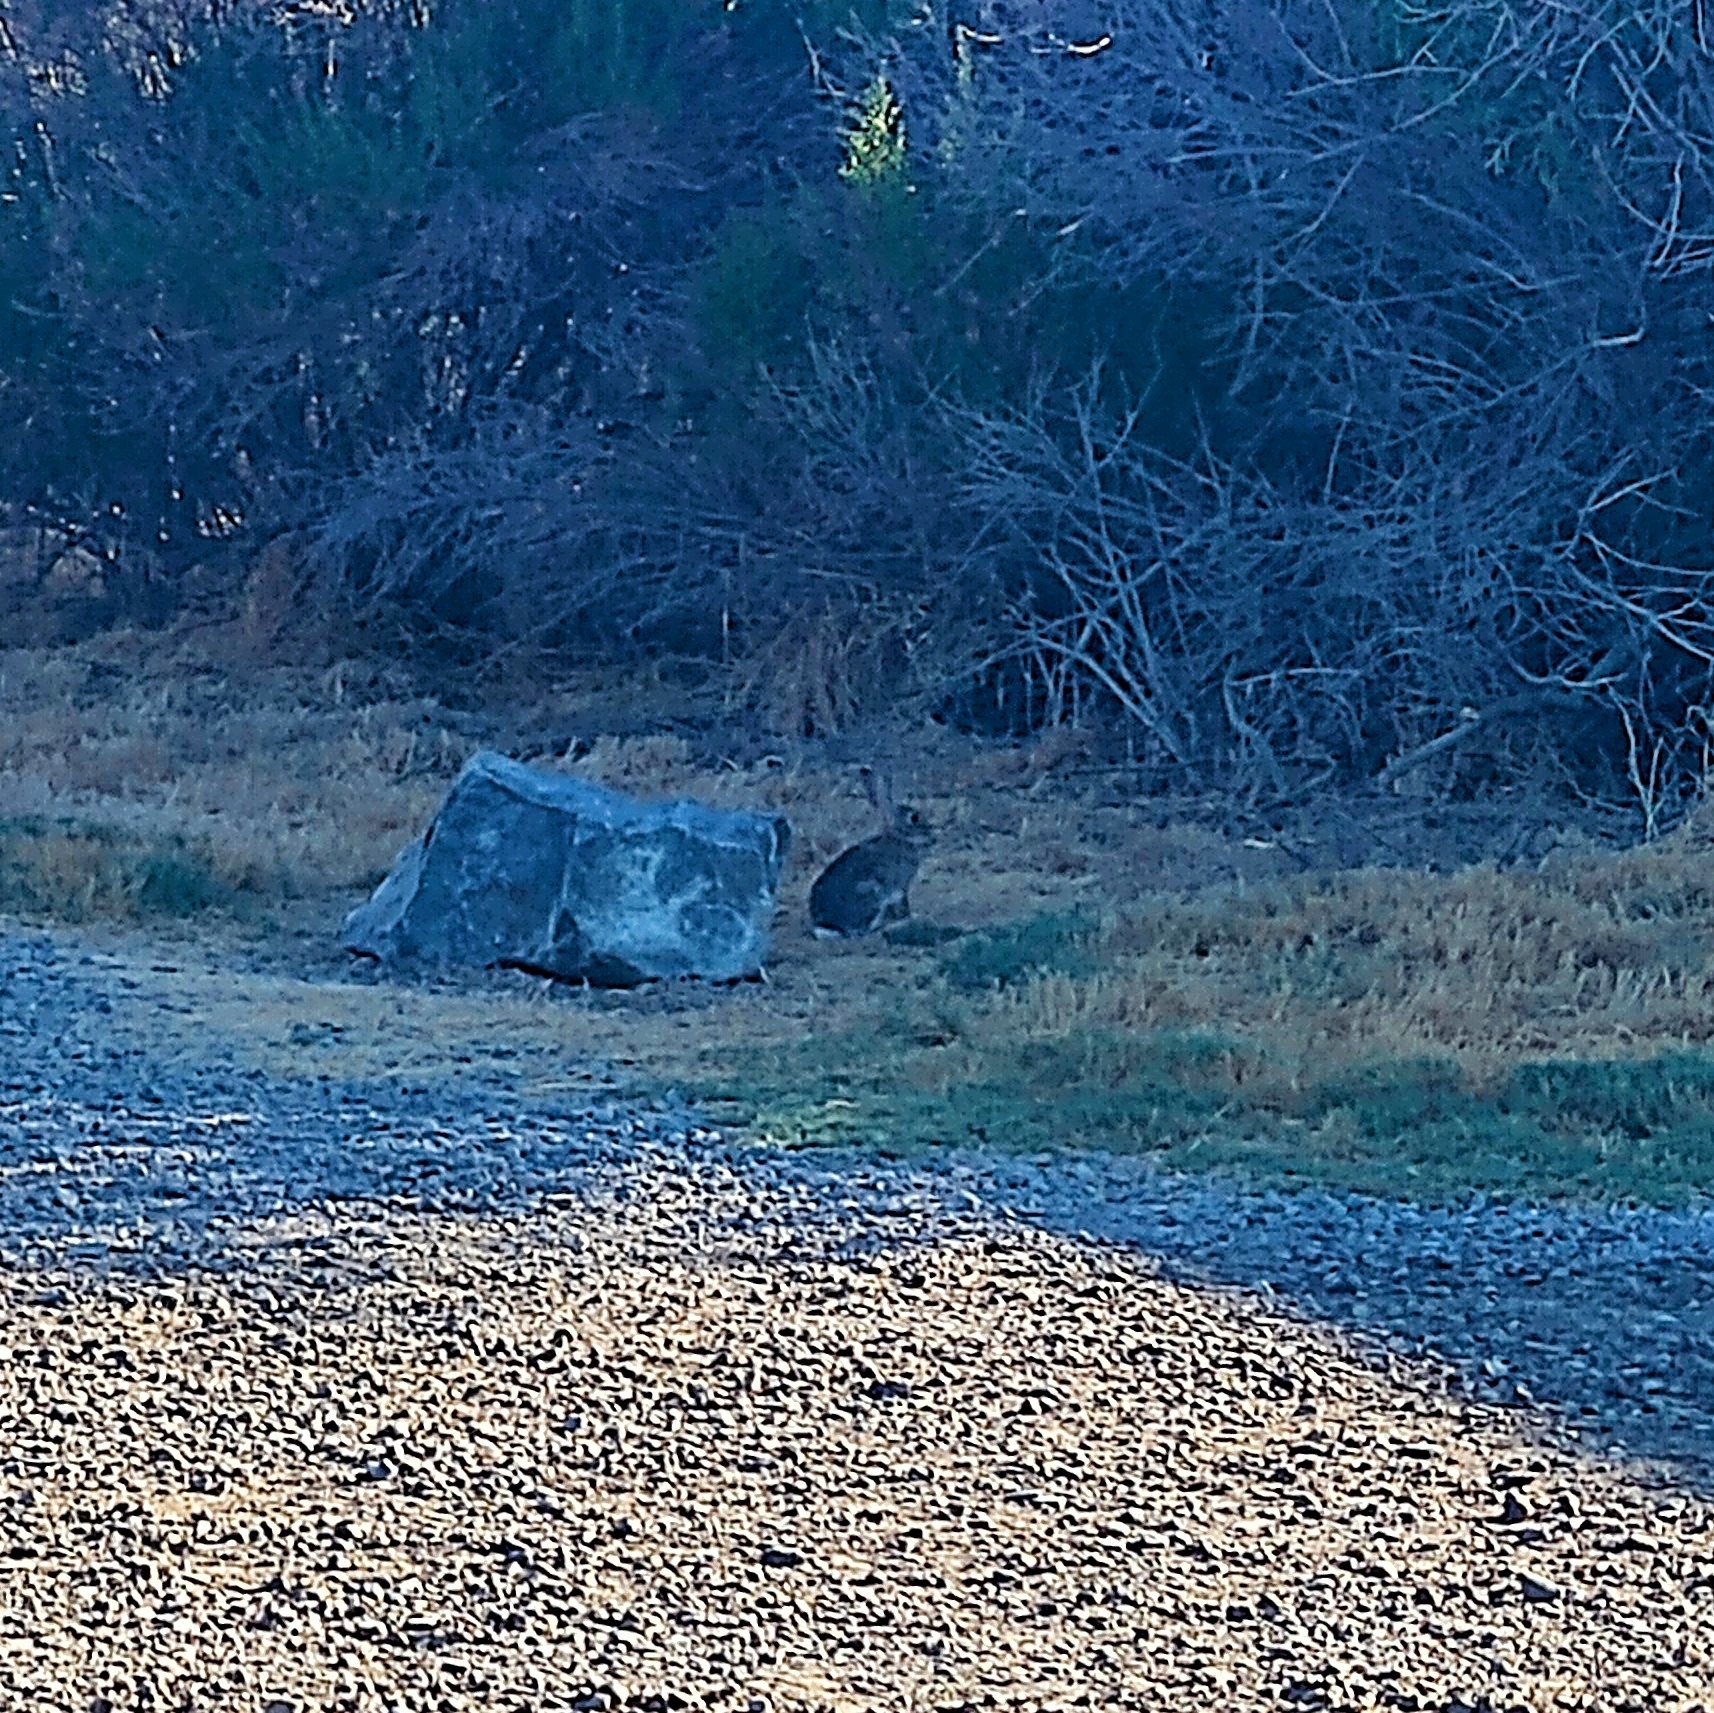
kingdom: Animalia
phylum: Chordata
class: Mammalia
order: Lagomorpha
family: Leporidae
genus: Sylvilagus
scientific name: Sylvilagus audubonii
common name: Desert cottontail
